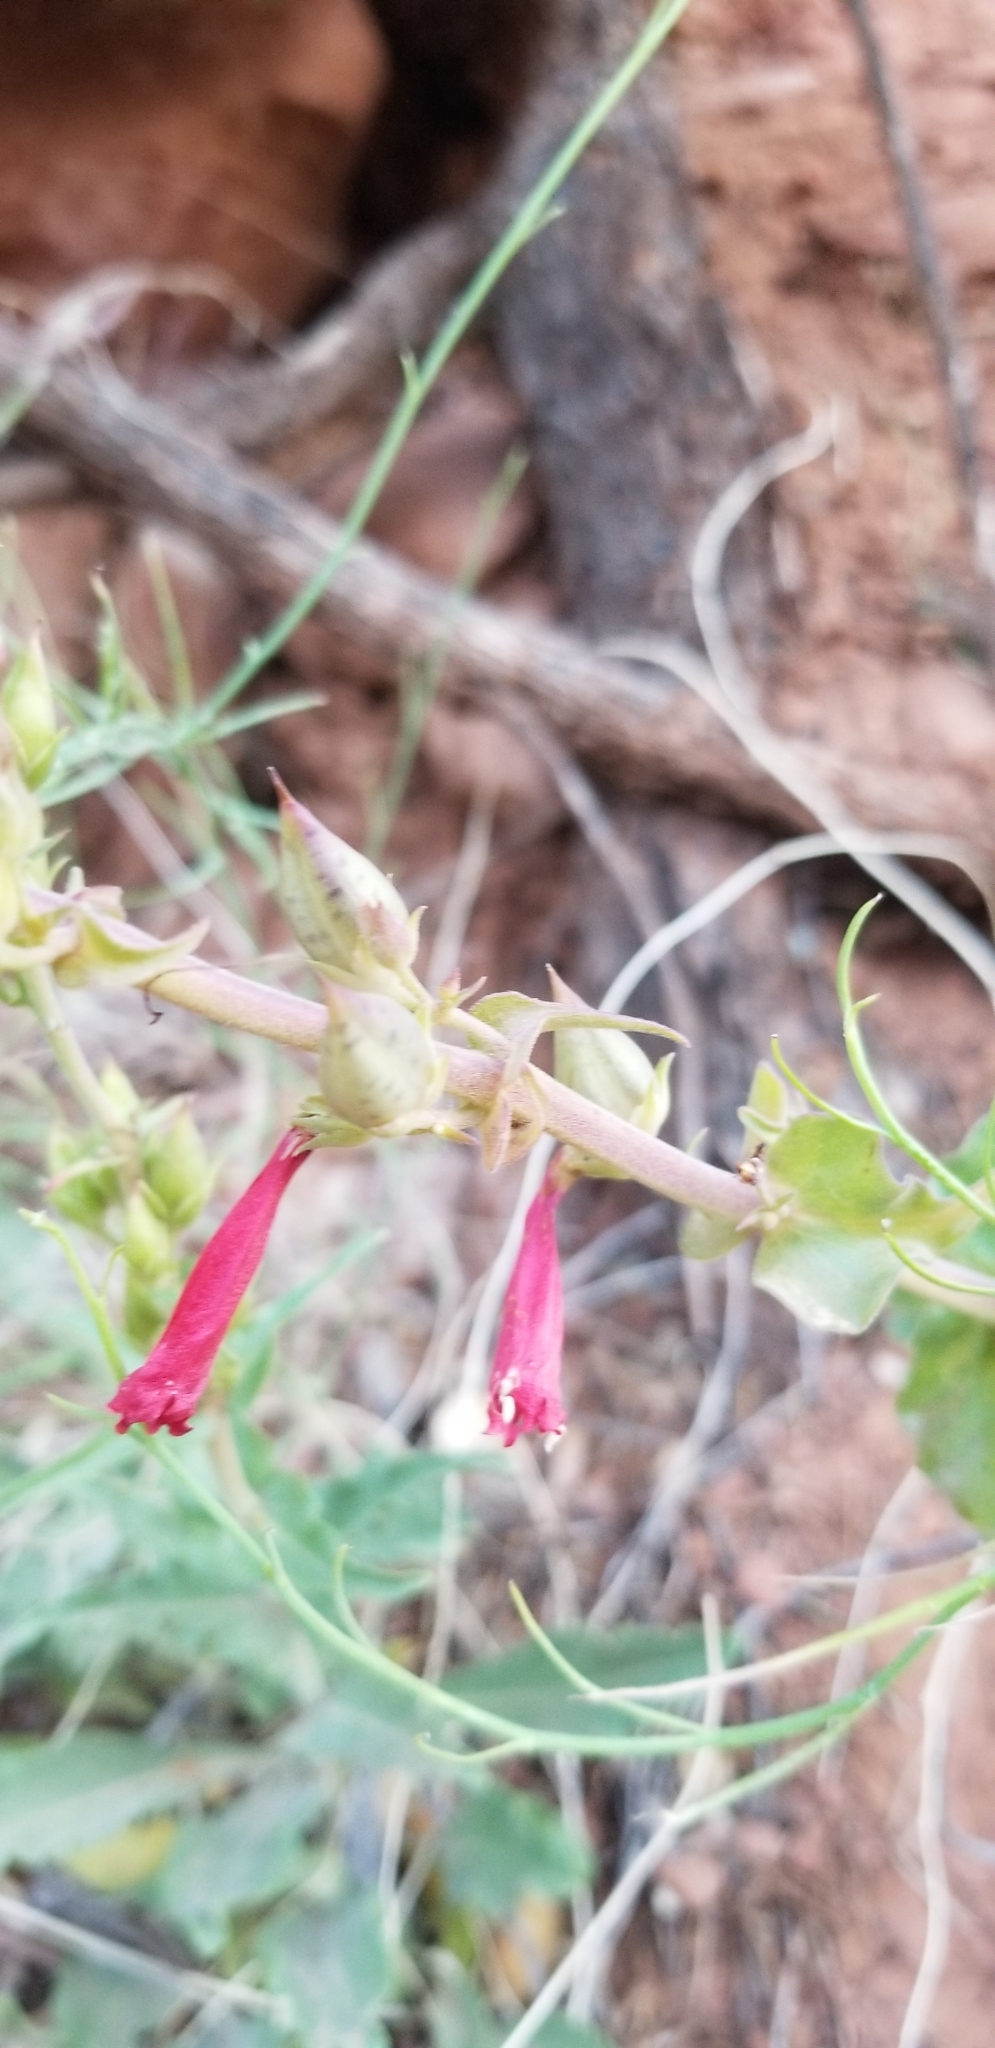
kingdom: Plantae
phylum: Tracheophyta
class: Magnoliopsida
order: Lamiales
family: Plantaginaceae
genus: Penstemon
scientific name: Penstemon eatonii
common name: Eaton's penstemon
